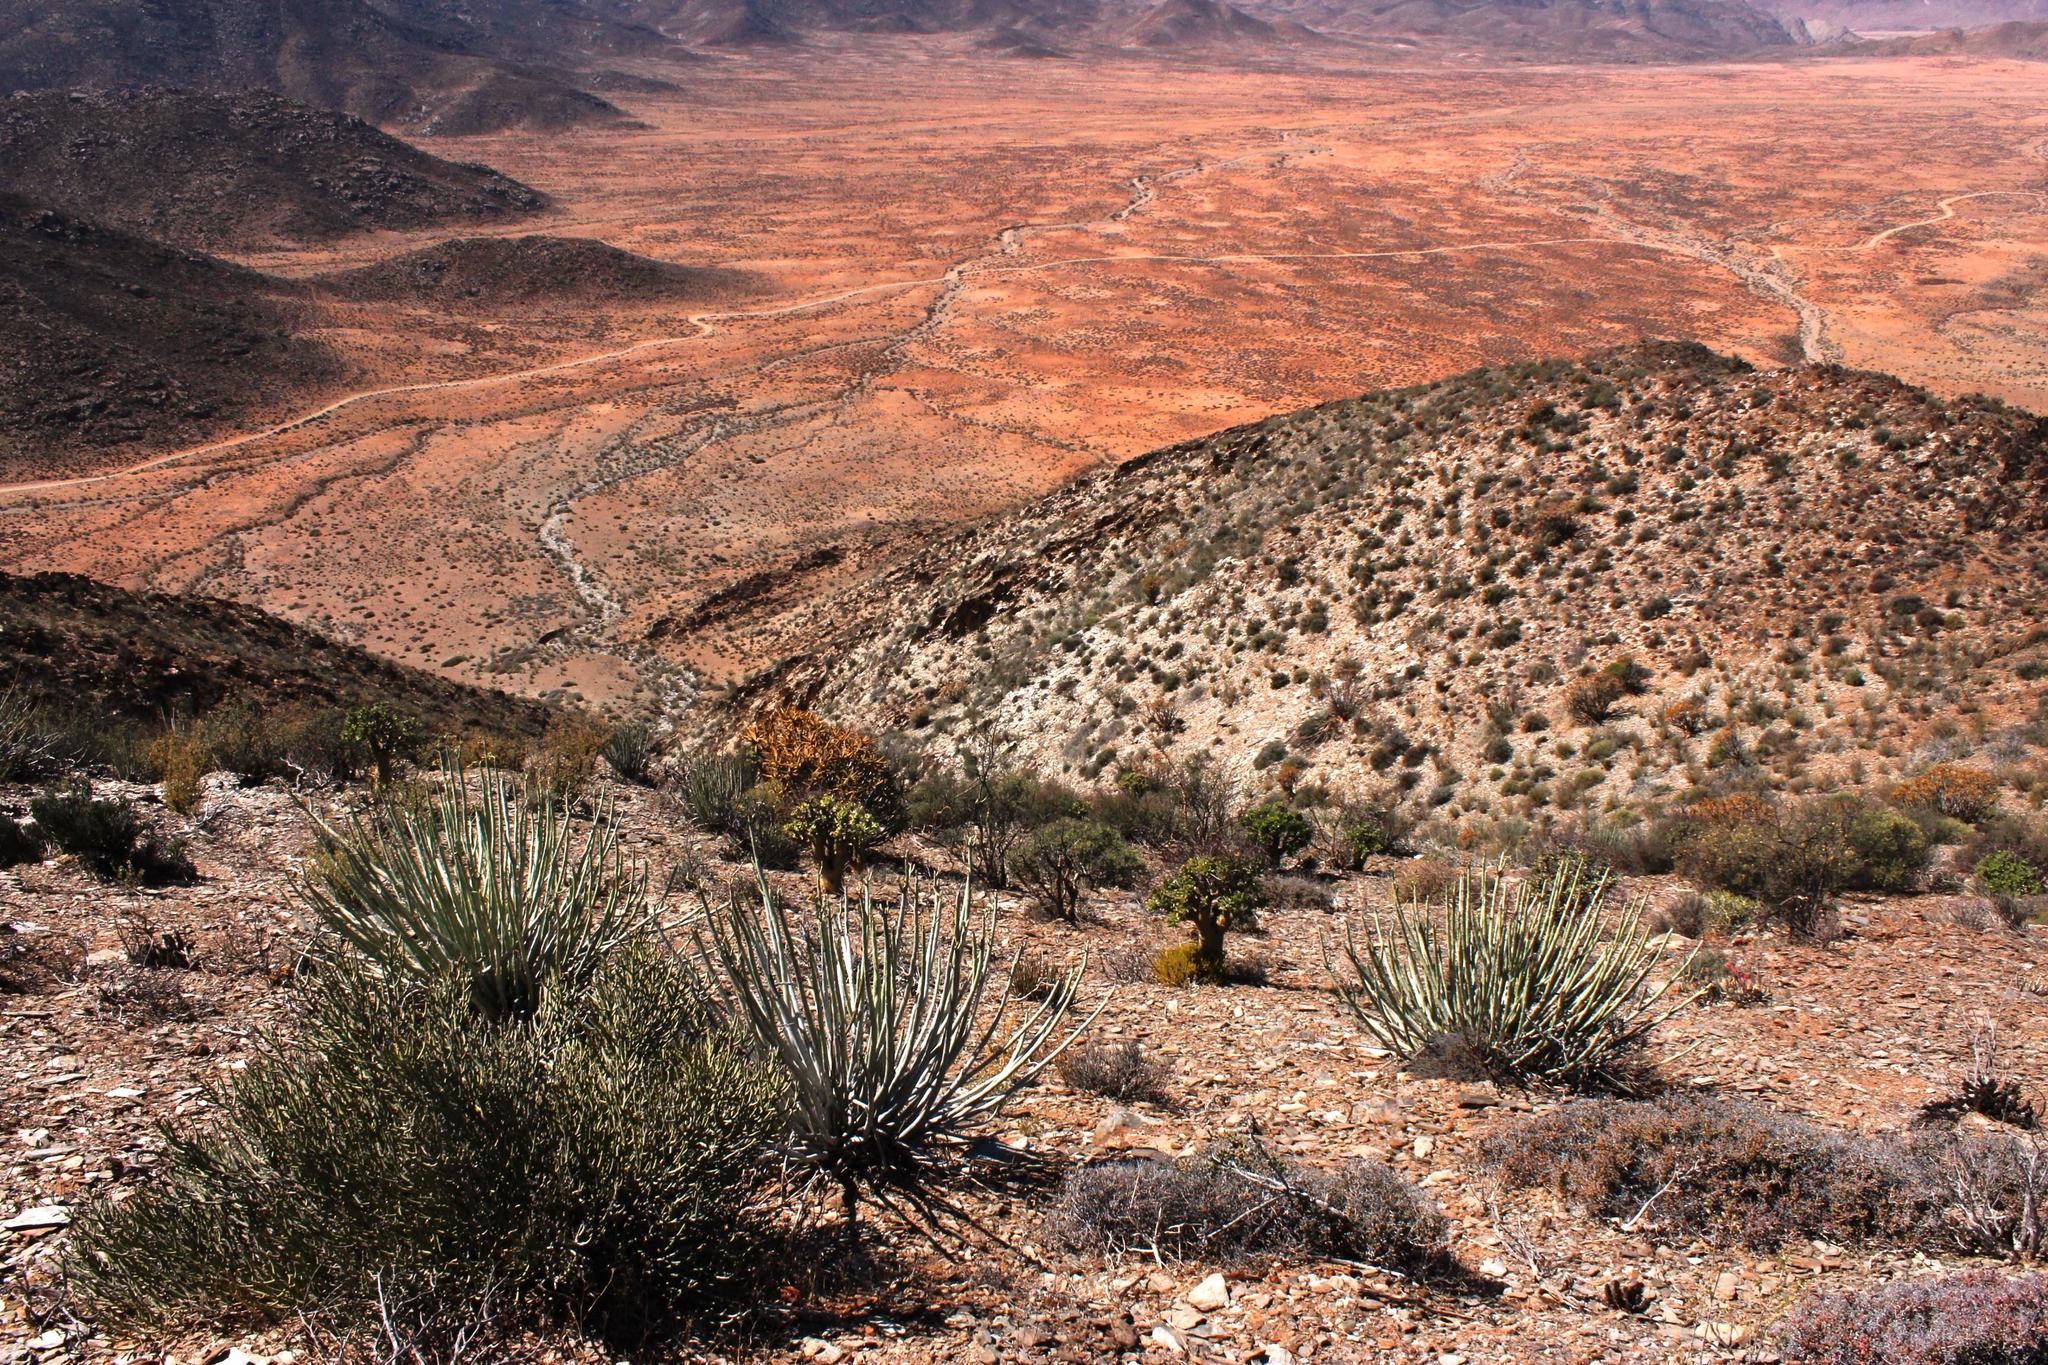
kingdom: Plantae
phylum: Tracheophyta
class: Magnoliopsida
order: Malpighiales
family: Euphorbiaceae
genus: Euphorbia
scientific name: Euphorbia dregeana
